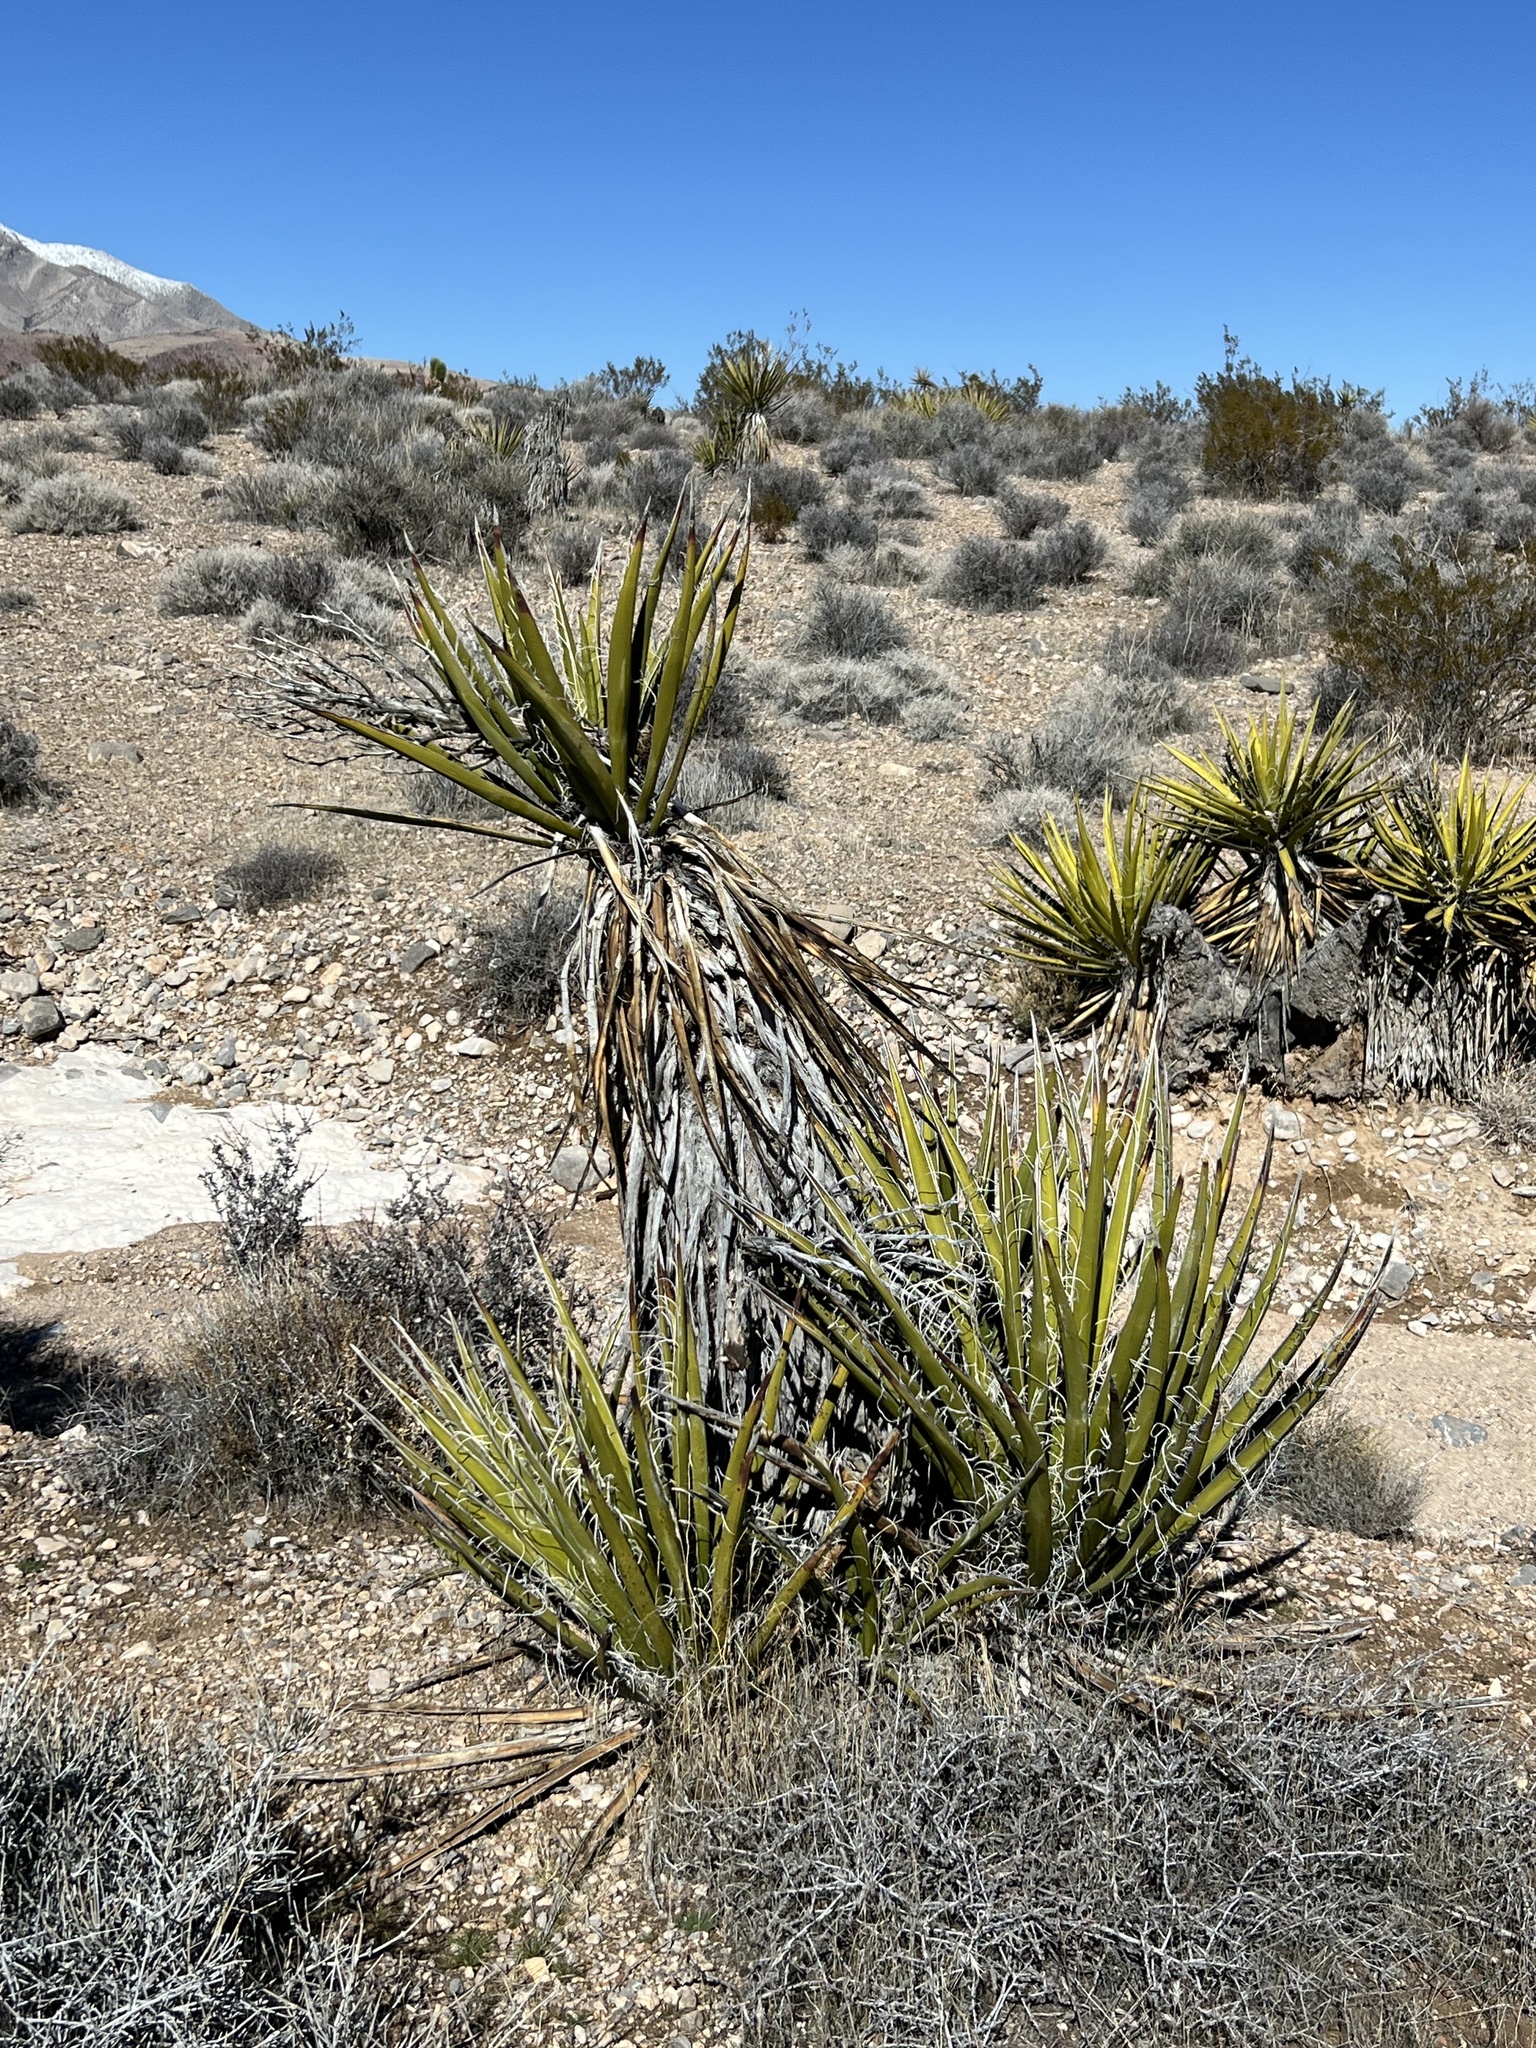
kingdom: Plantae
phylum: Tracheophyta
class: Liliopsida
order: Asparagales
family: Asparagaceae
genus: Yucca
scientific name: Yucca schidigera
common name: Mojave yucca
